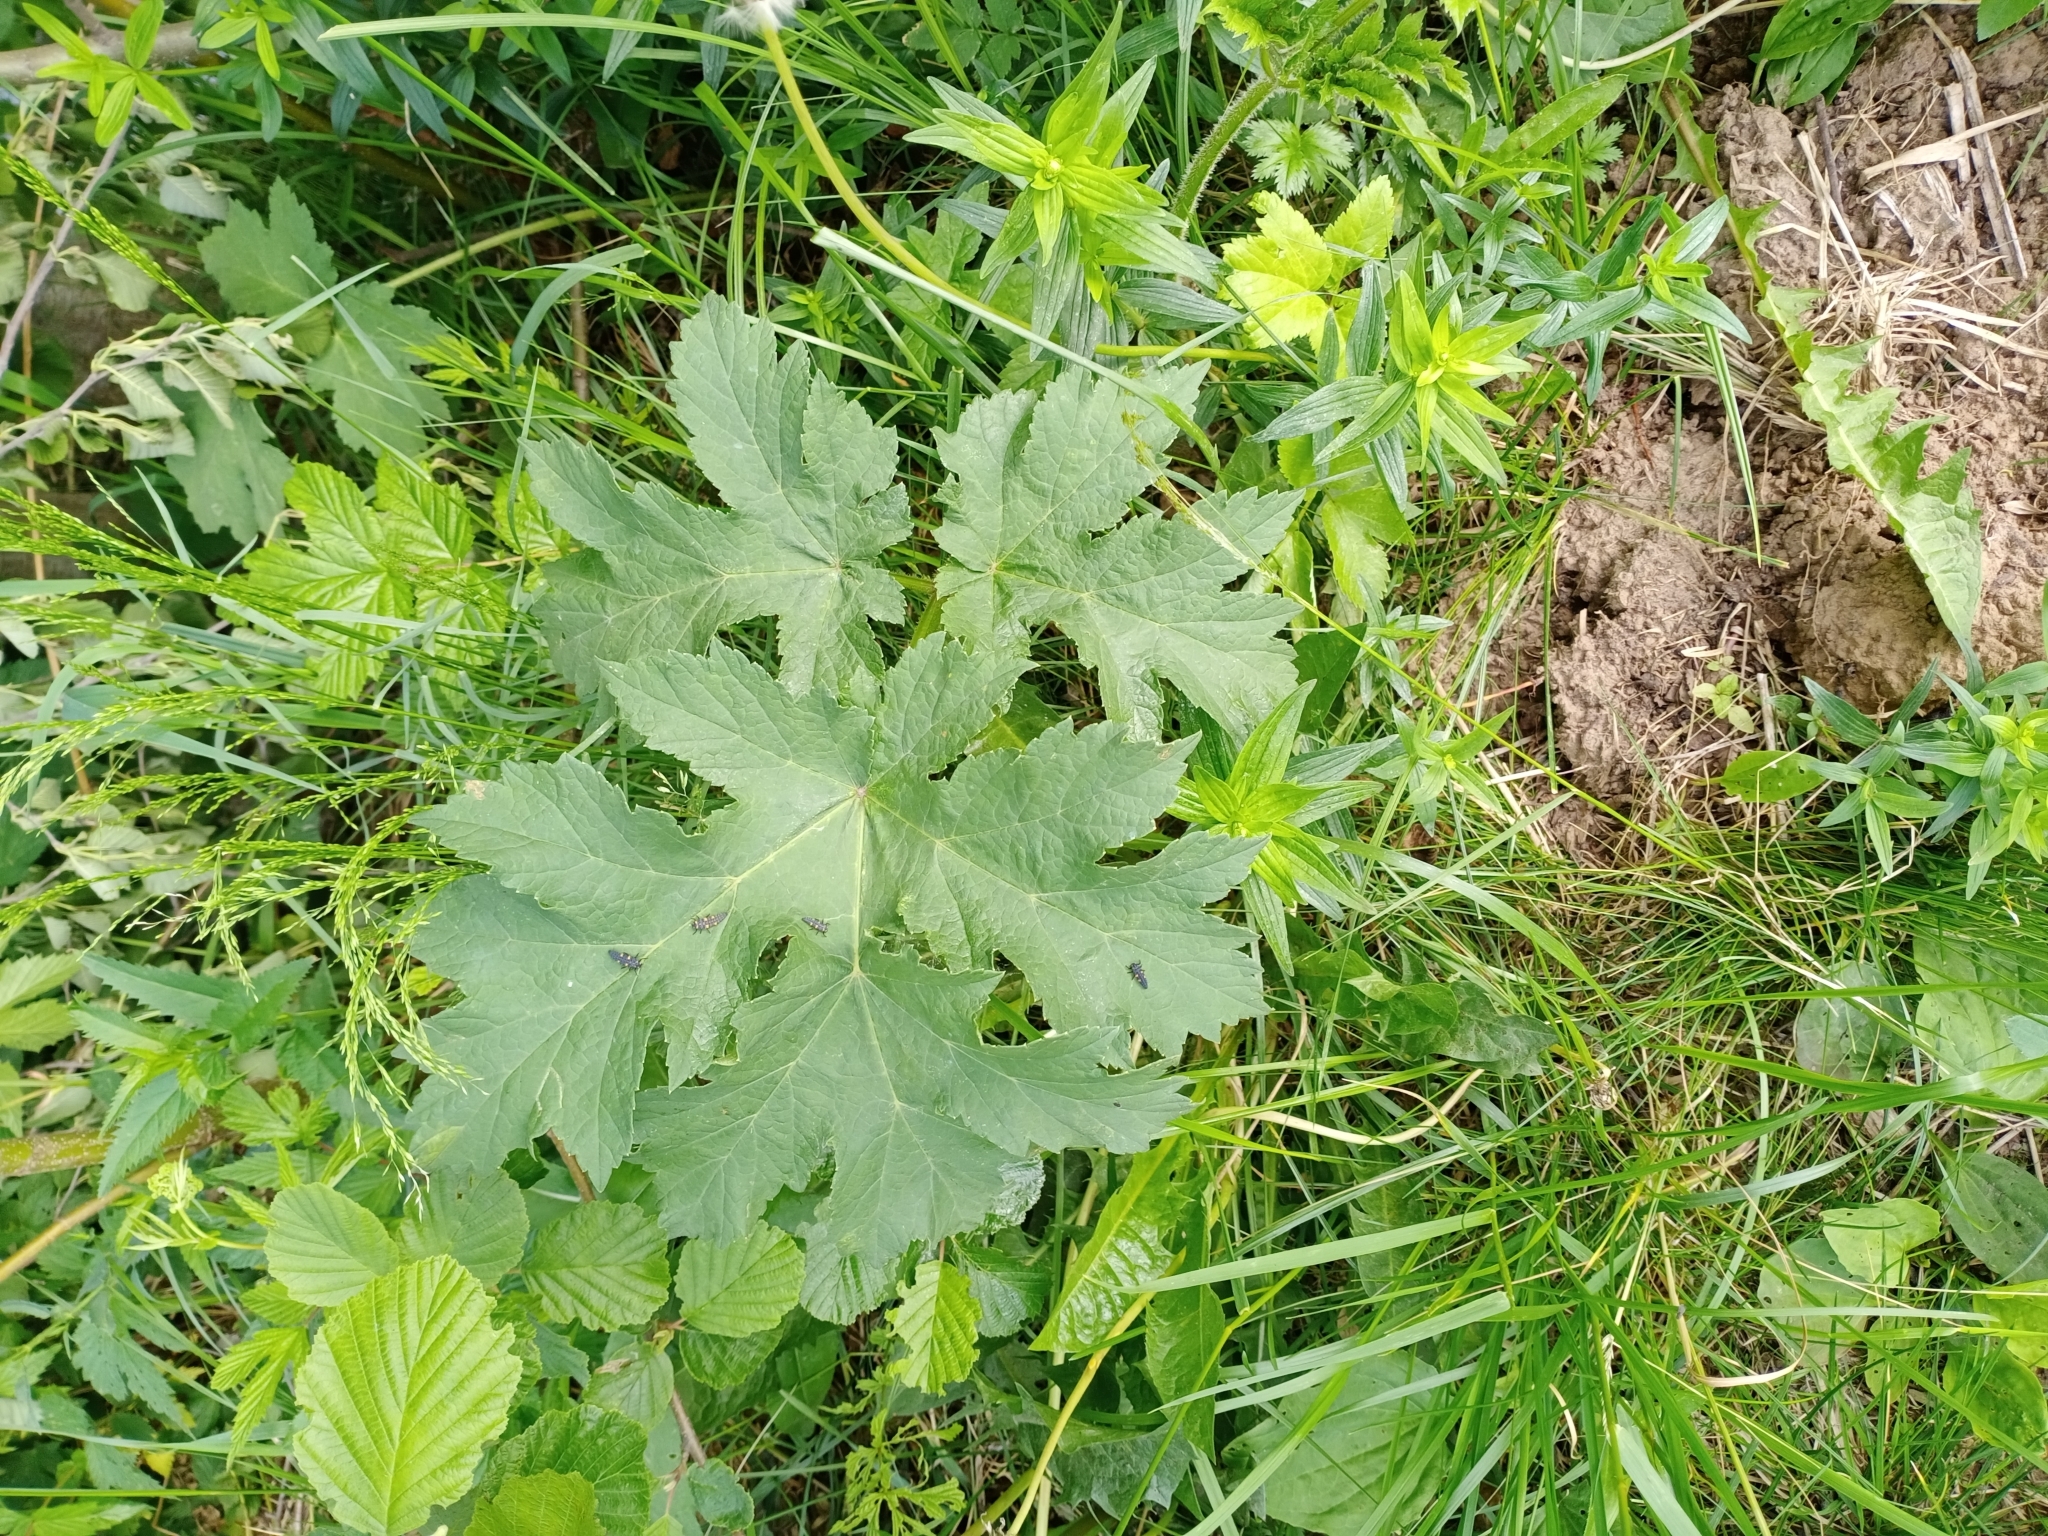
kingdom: Plantae
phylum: Tracheophyta
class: Magnoliopsida
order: Apiales
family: Apiaceae
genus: Heracleum
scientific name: Heracleum sphondylium
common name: Hogweed
